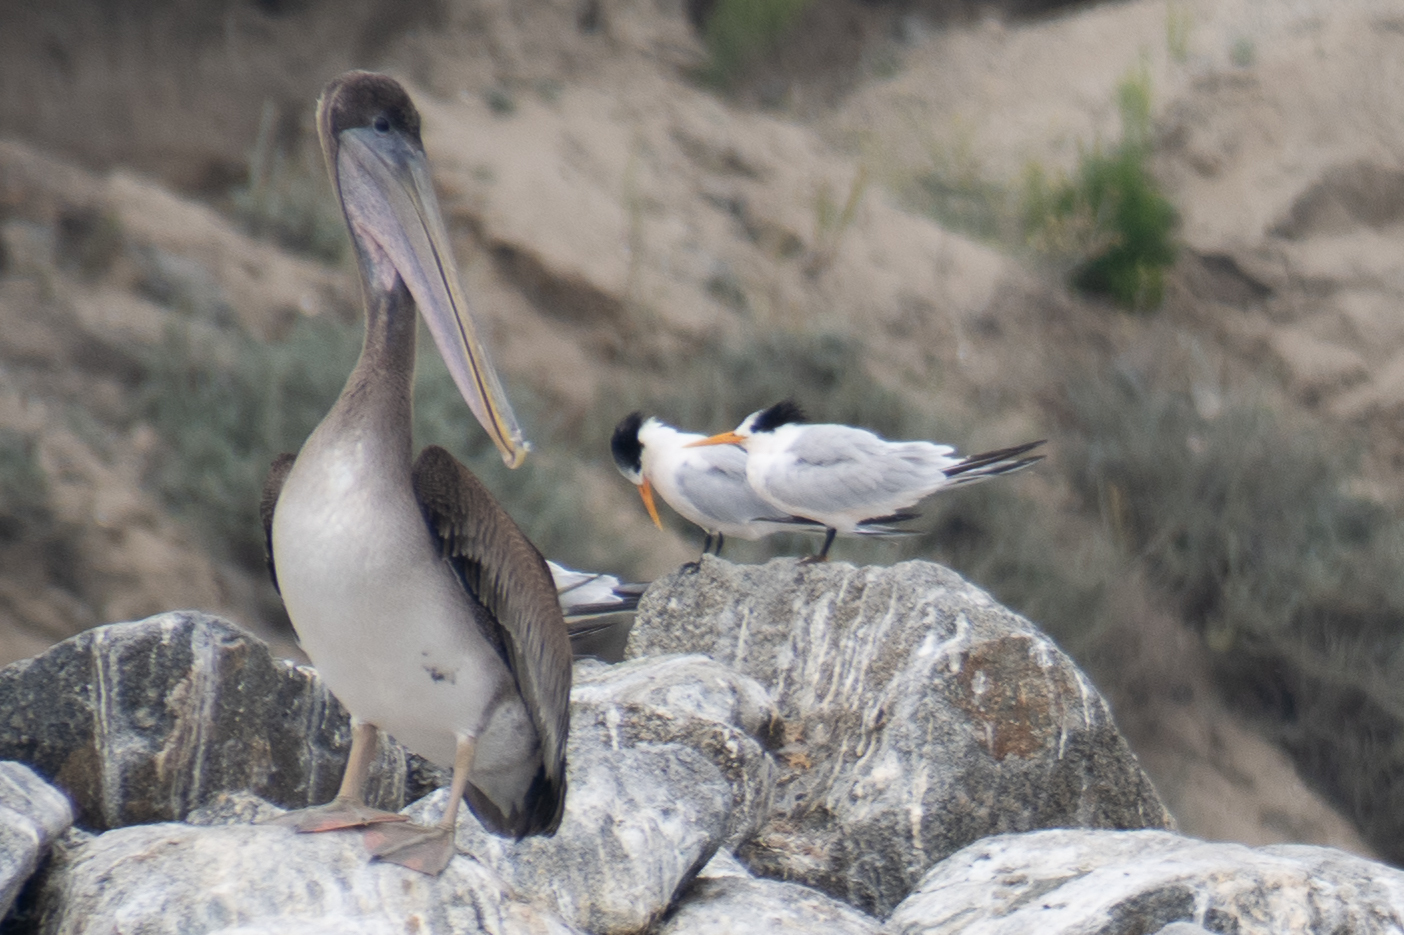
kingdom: Animalia
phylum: Chordata
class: Aves
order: Charadriiformes
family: Laridae
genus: Thalasseus
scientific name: Thalasseus elegans
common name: Elegant tern
